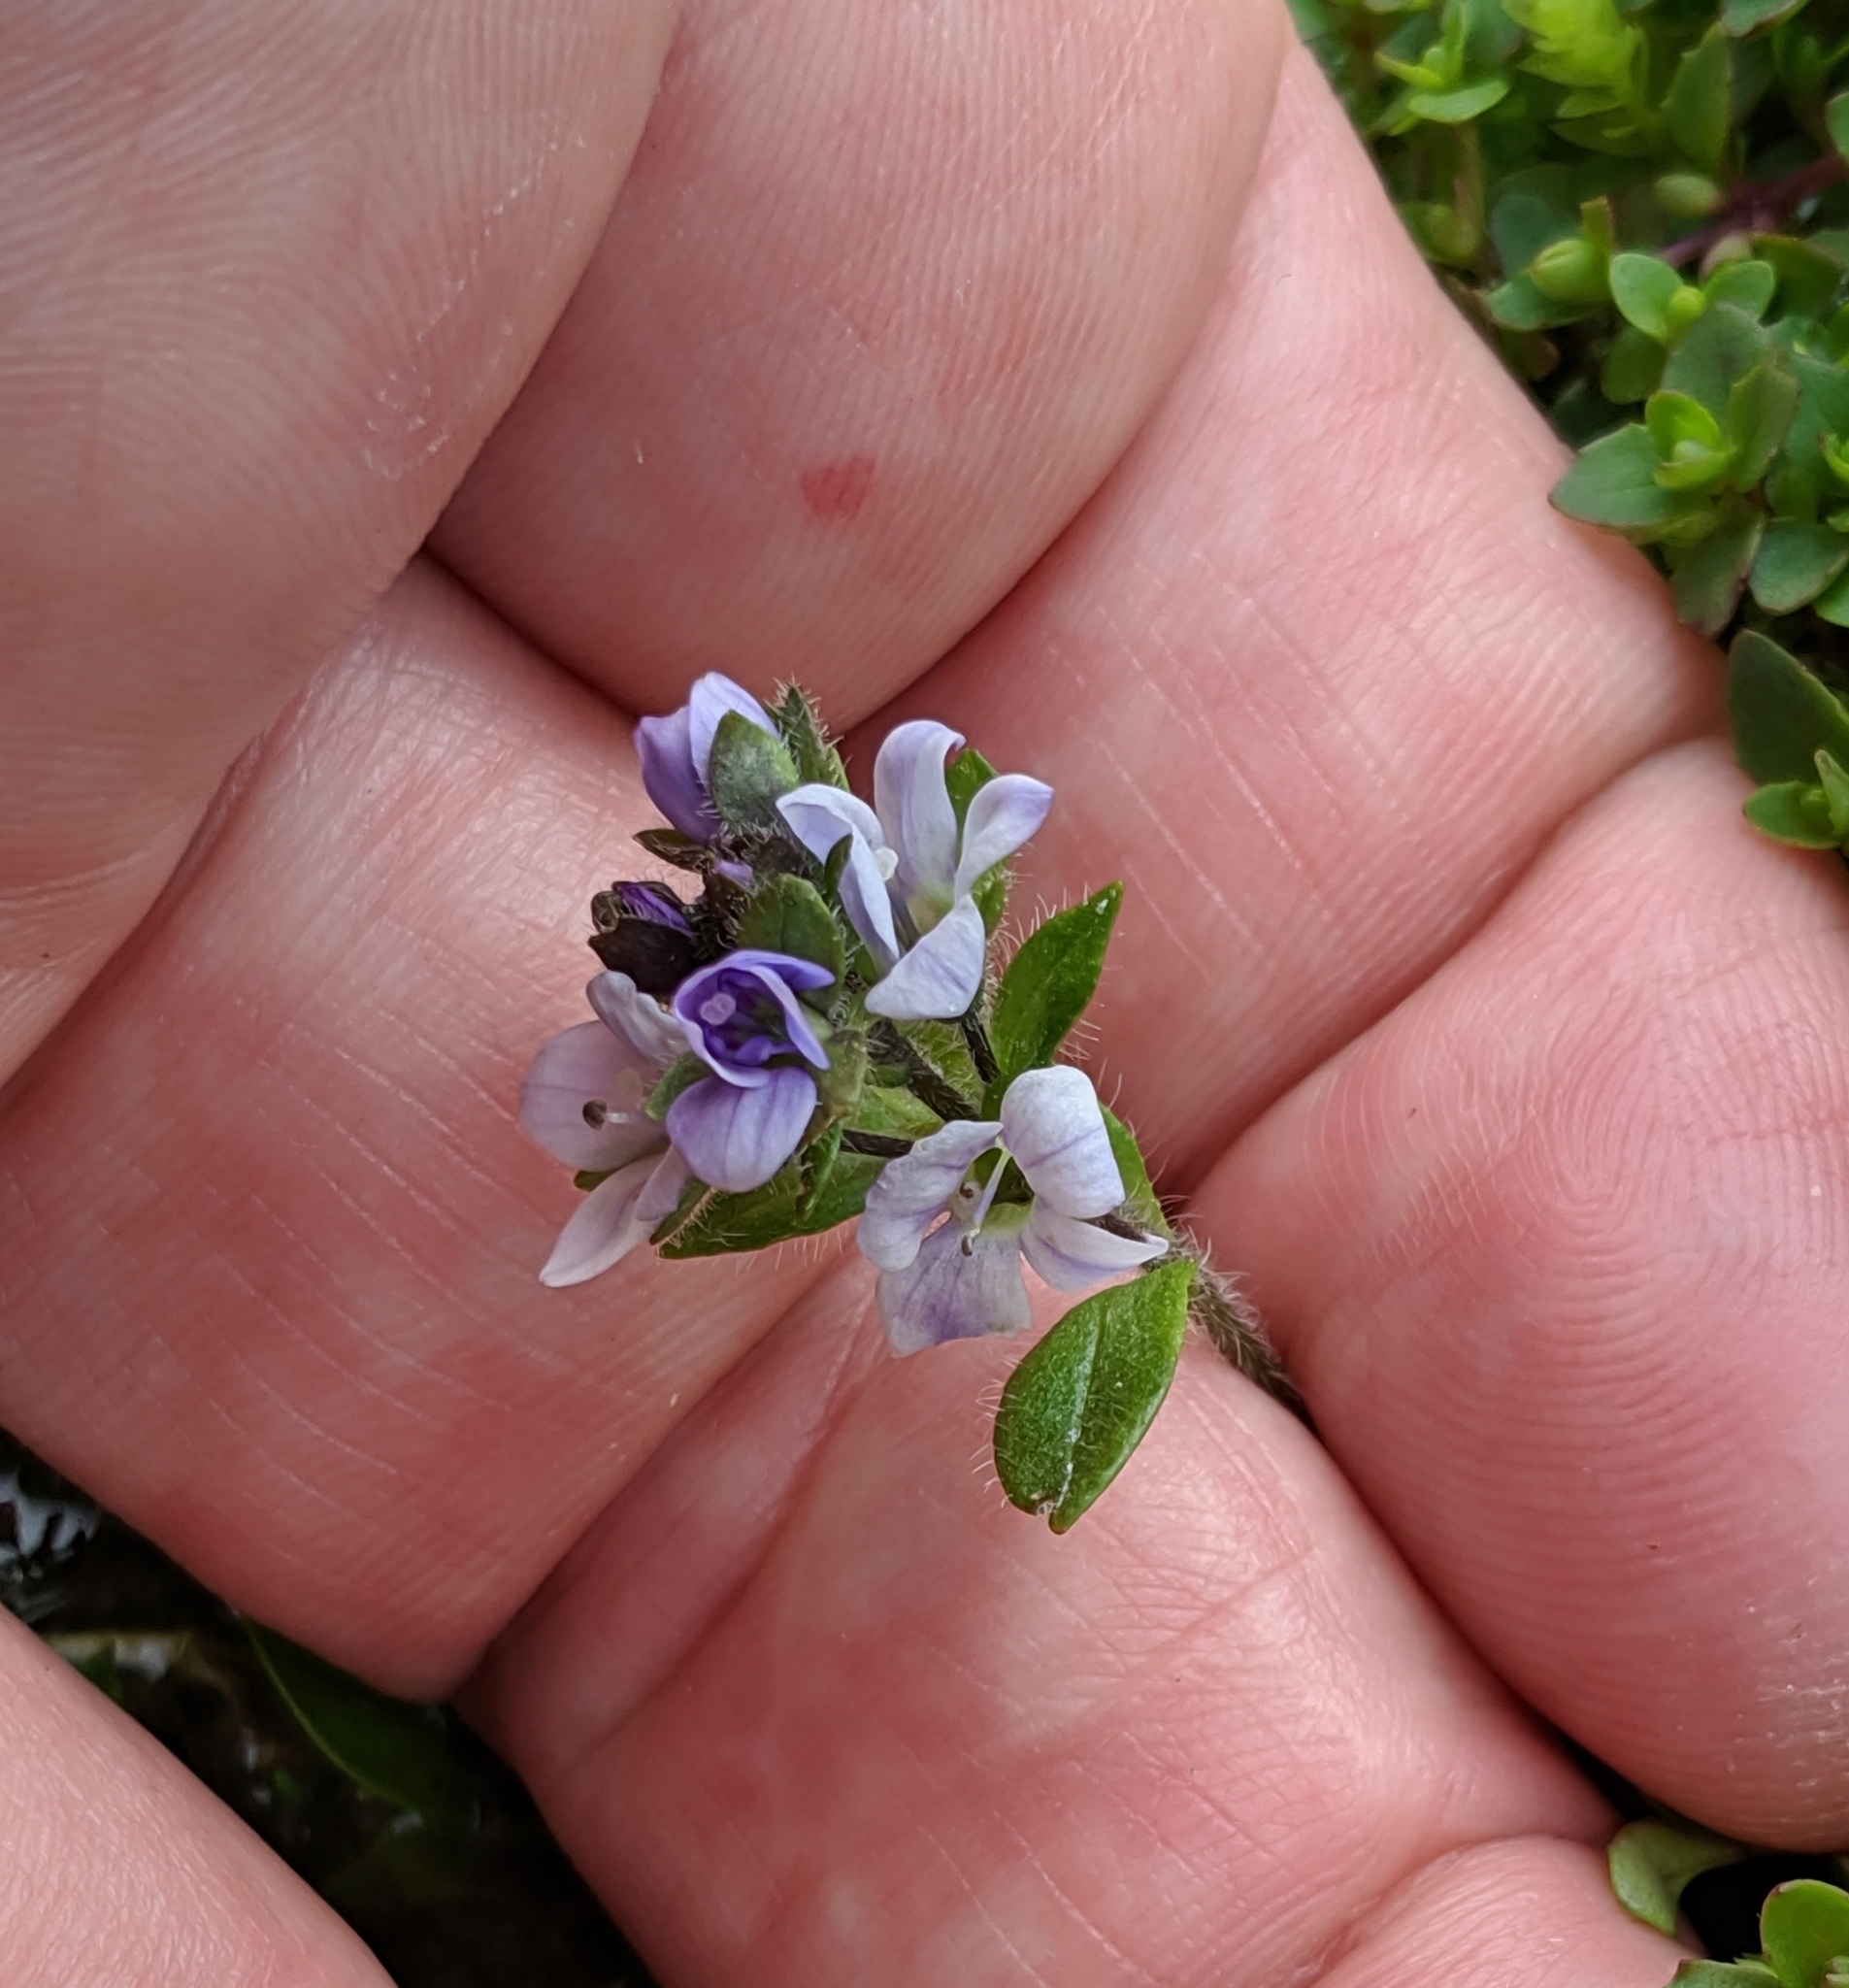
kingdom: Plantae
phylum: Tracheophyta
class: Magnoliopsida
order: Lamiales
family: Plantaginaceae
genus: Veronica
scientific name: Veronica wormskjoldii
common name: American alpine speedwell
